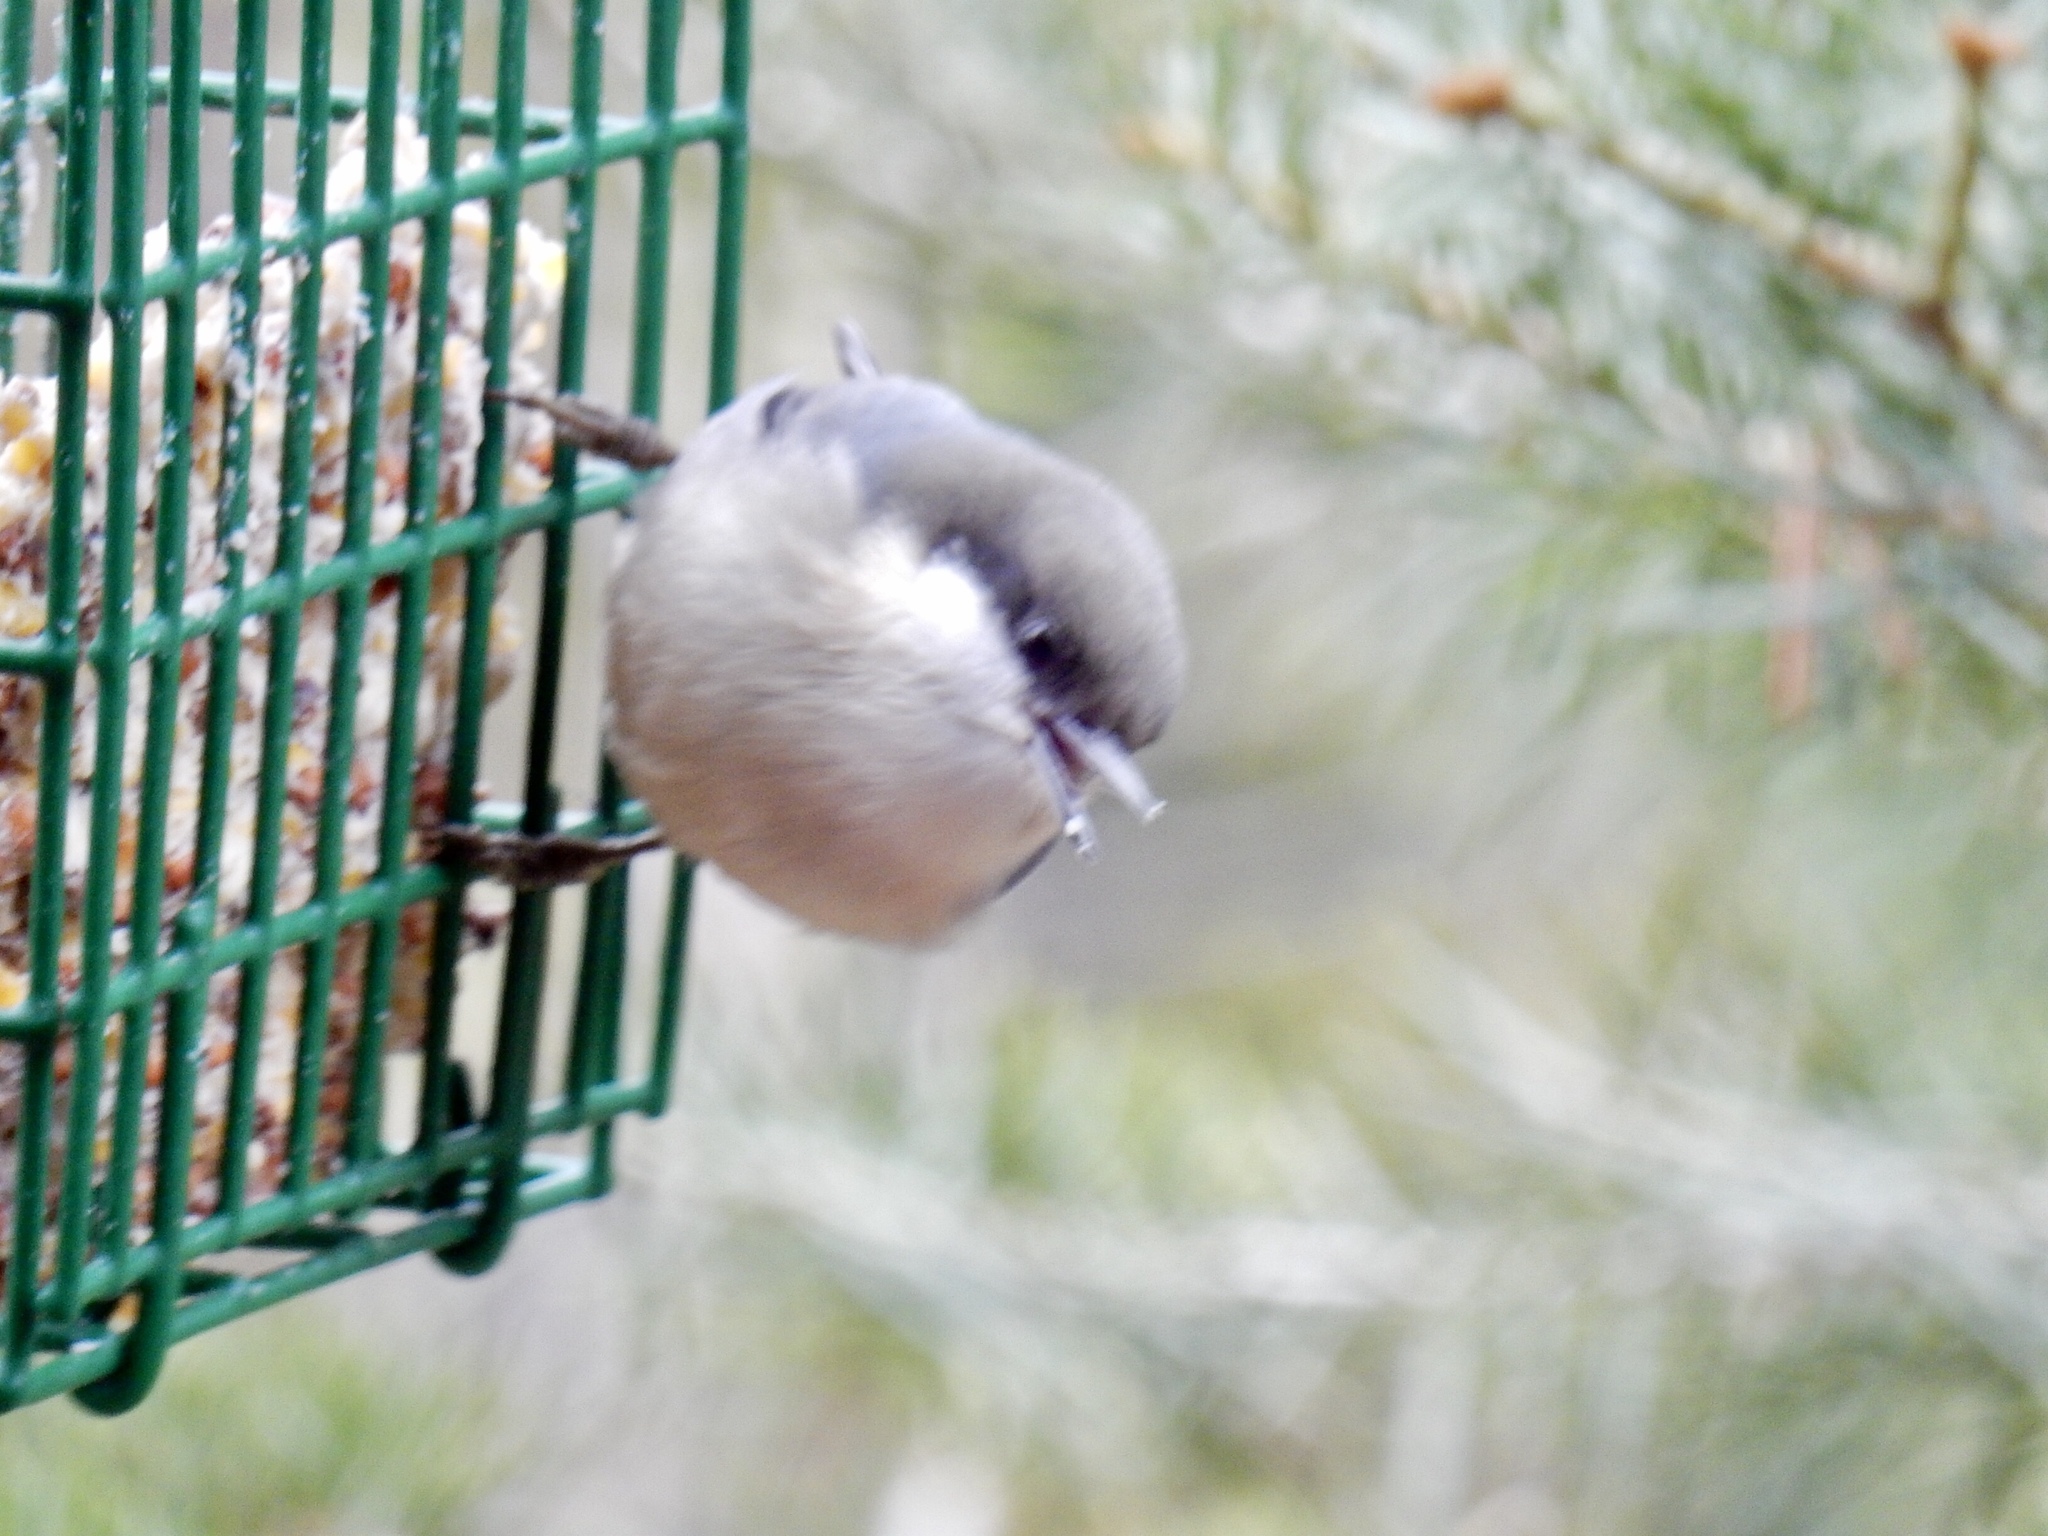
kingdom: Animalia
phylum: Chordata
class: Aves
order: Passeriformes
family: Sittidae
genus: Sitta
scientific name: Sitta pygmaea
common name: Pygmy nuthatch
